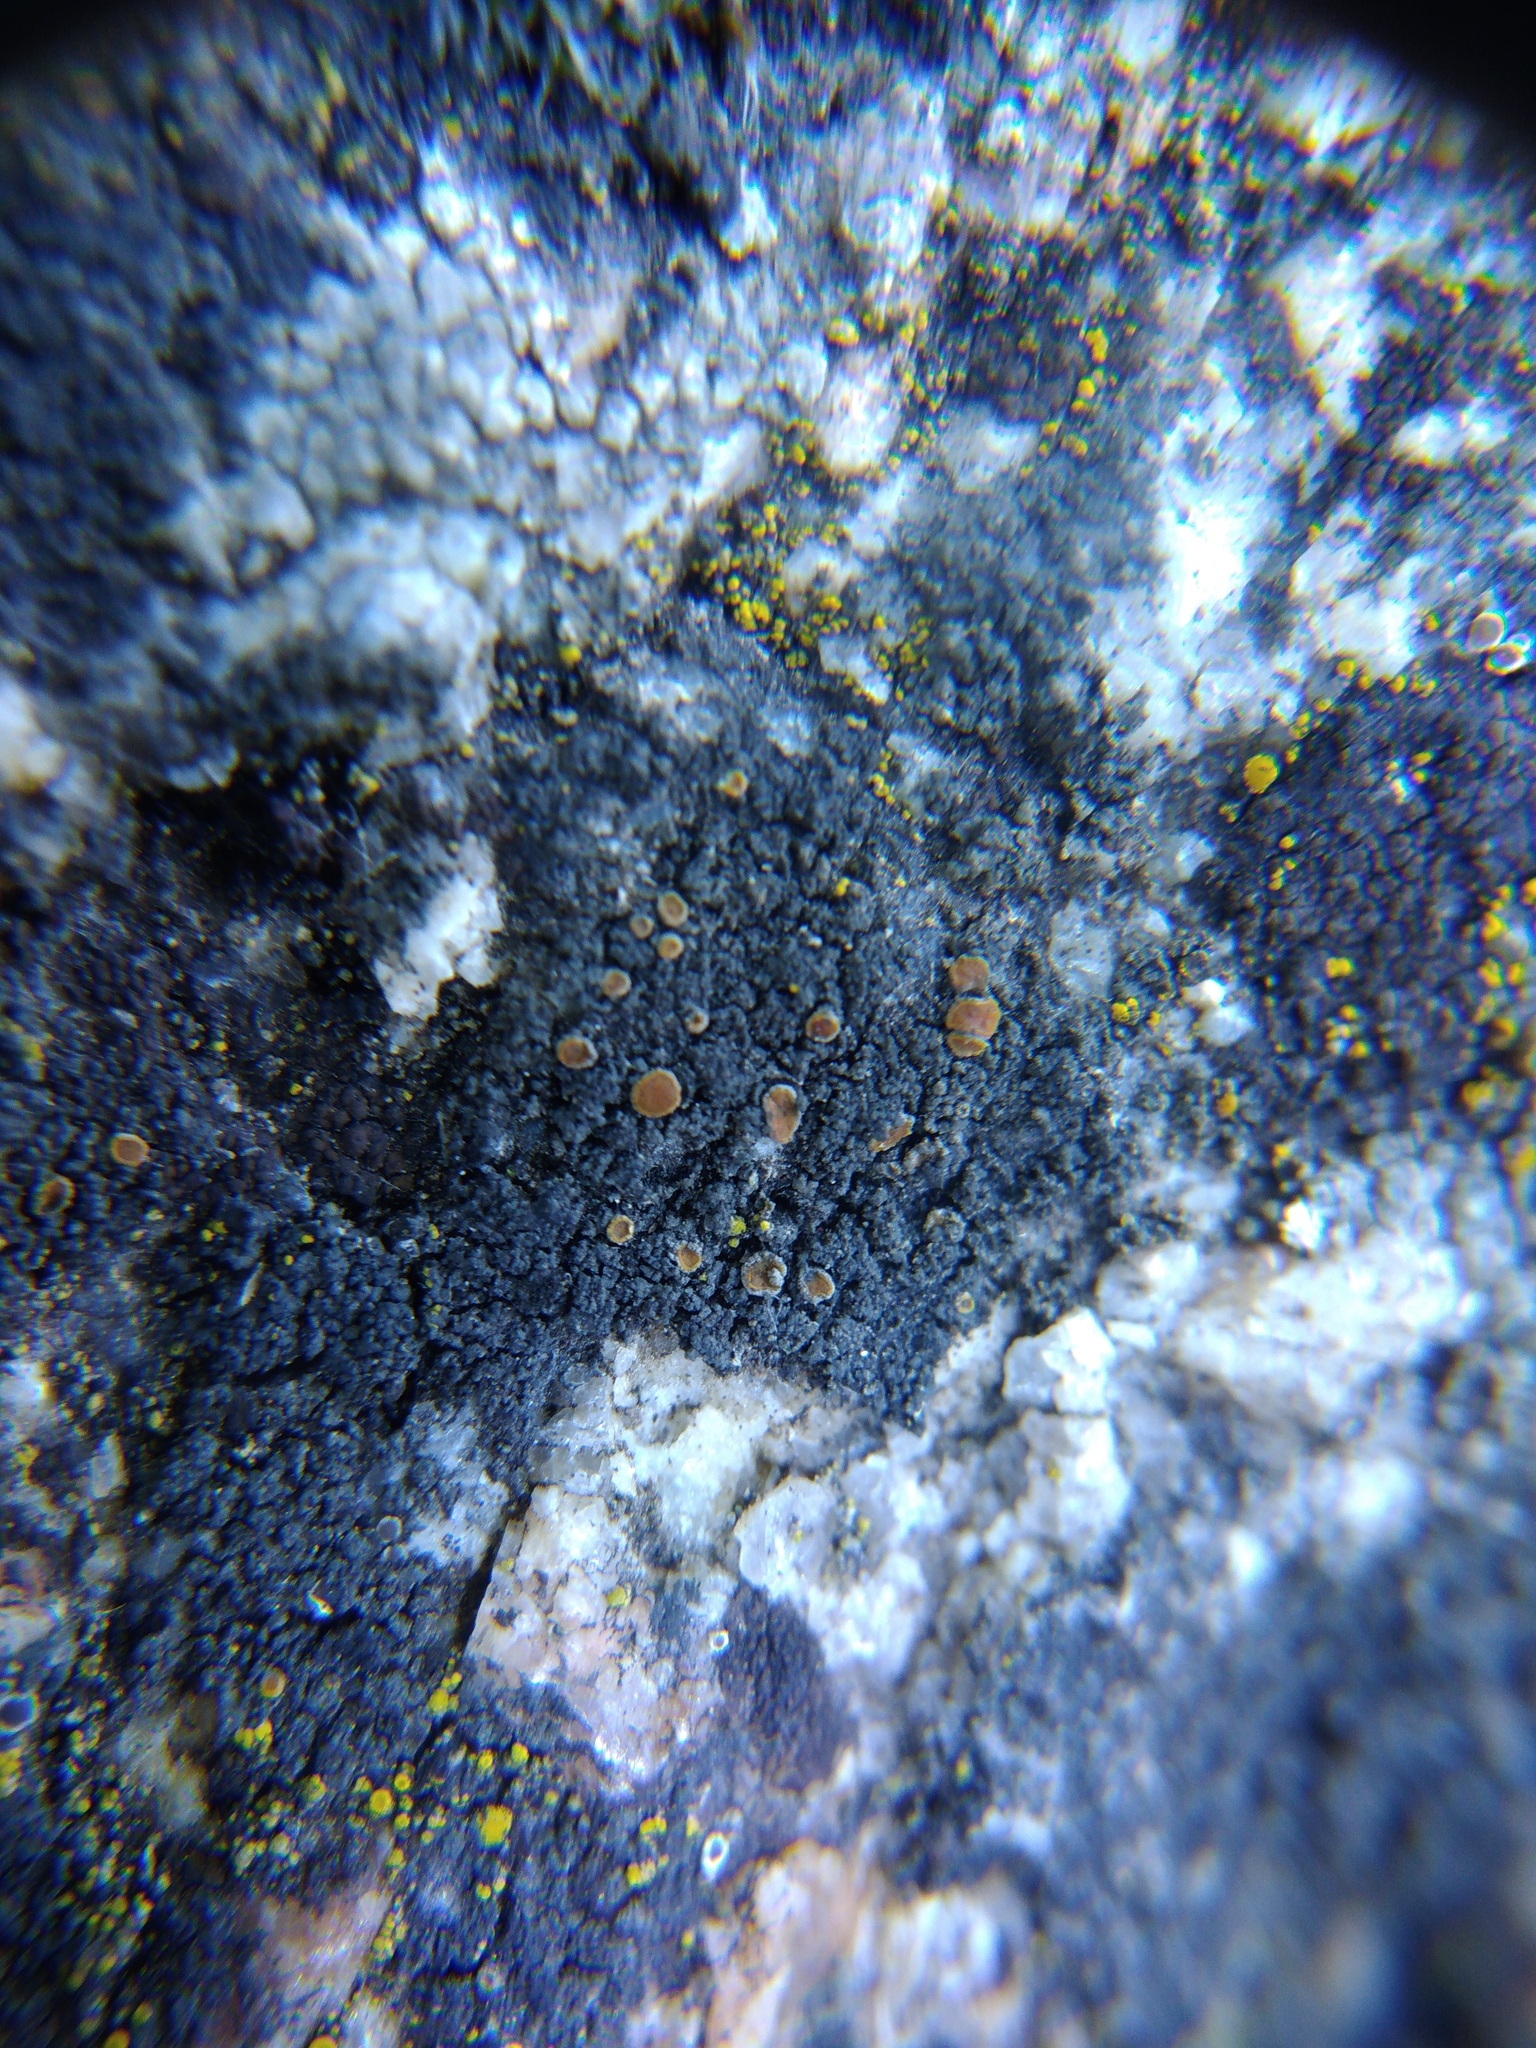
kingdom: Fungi
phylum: Ascomycota
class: Lecanoromycetes
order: Teloschistales
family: Teloschistaceae
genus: Kuettlingeria
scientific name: Kuettlingeria xerica
